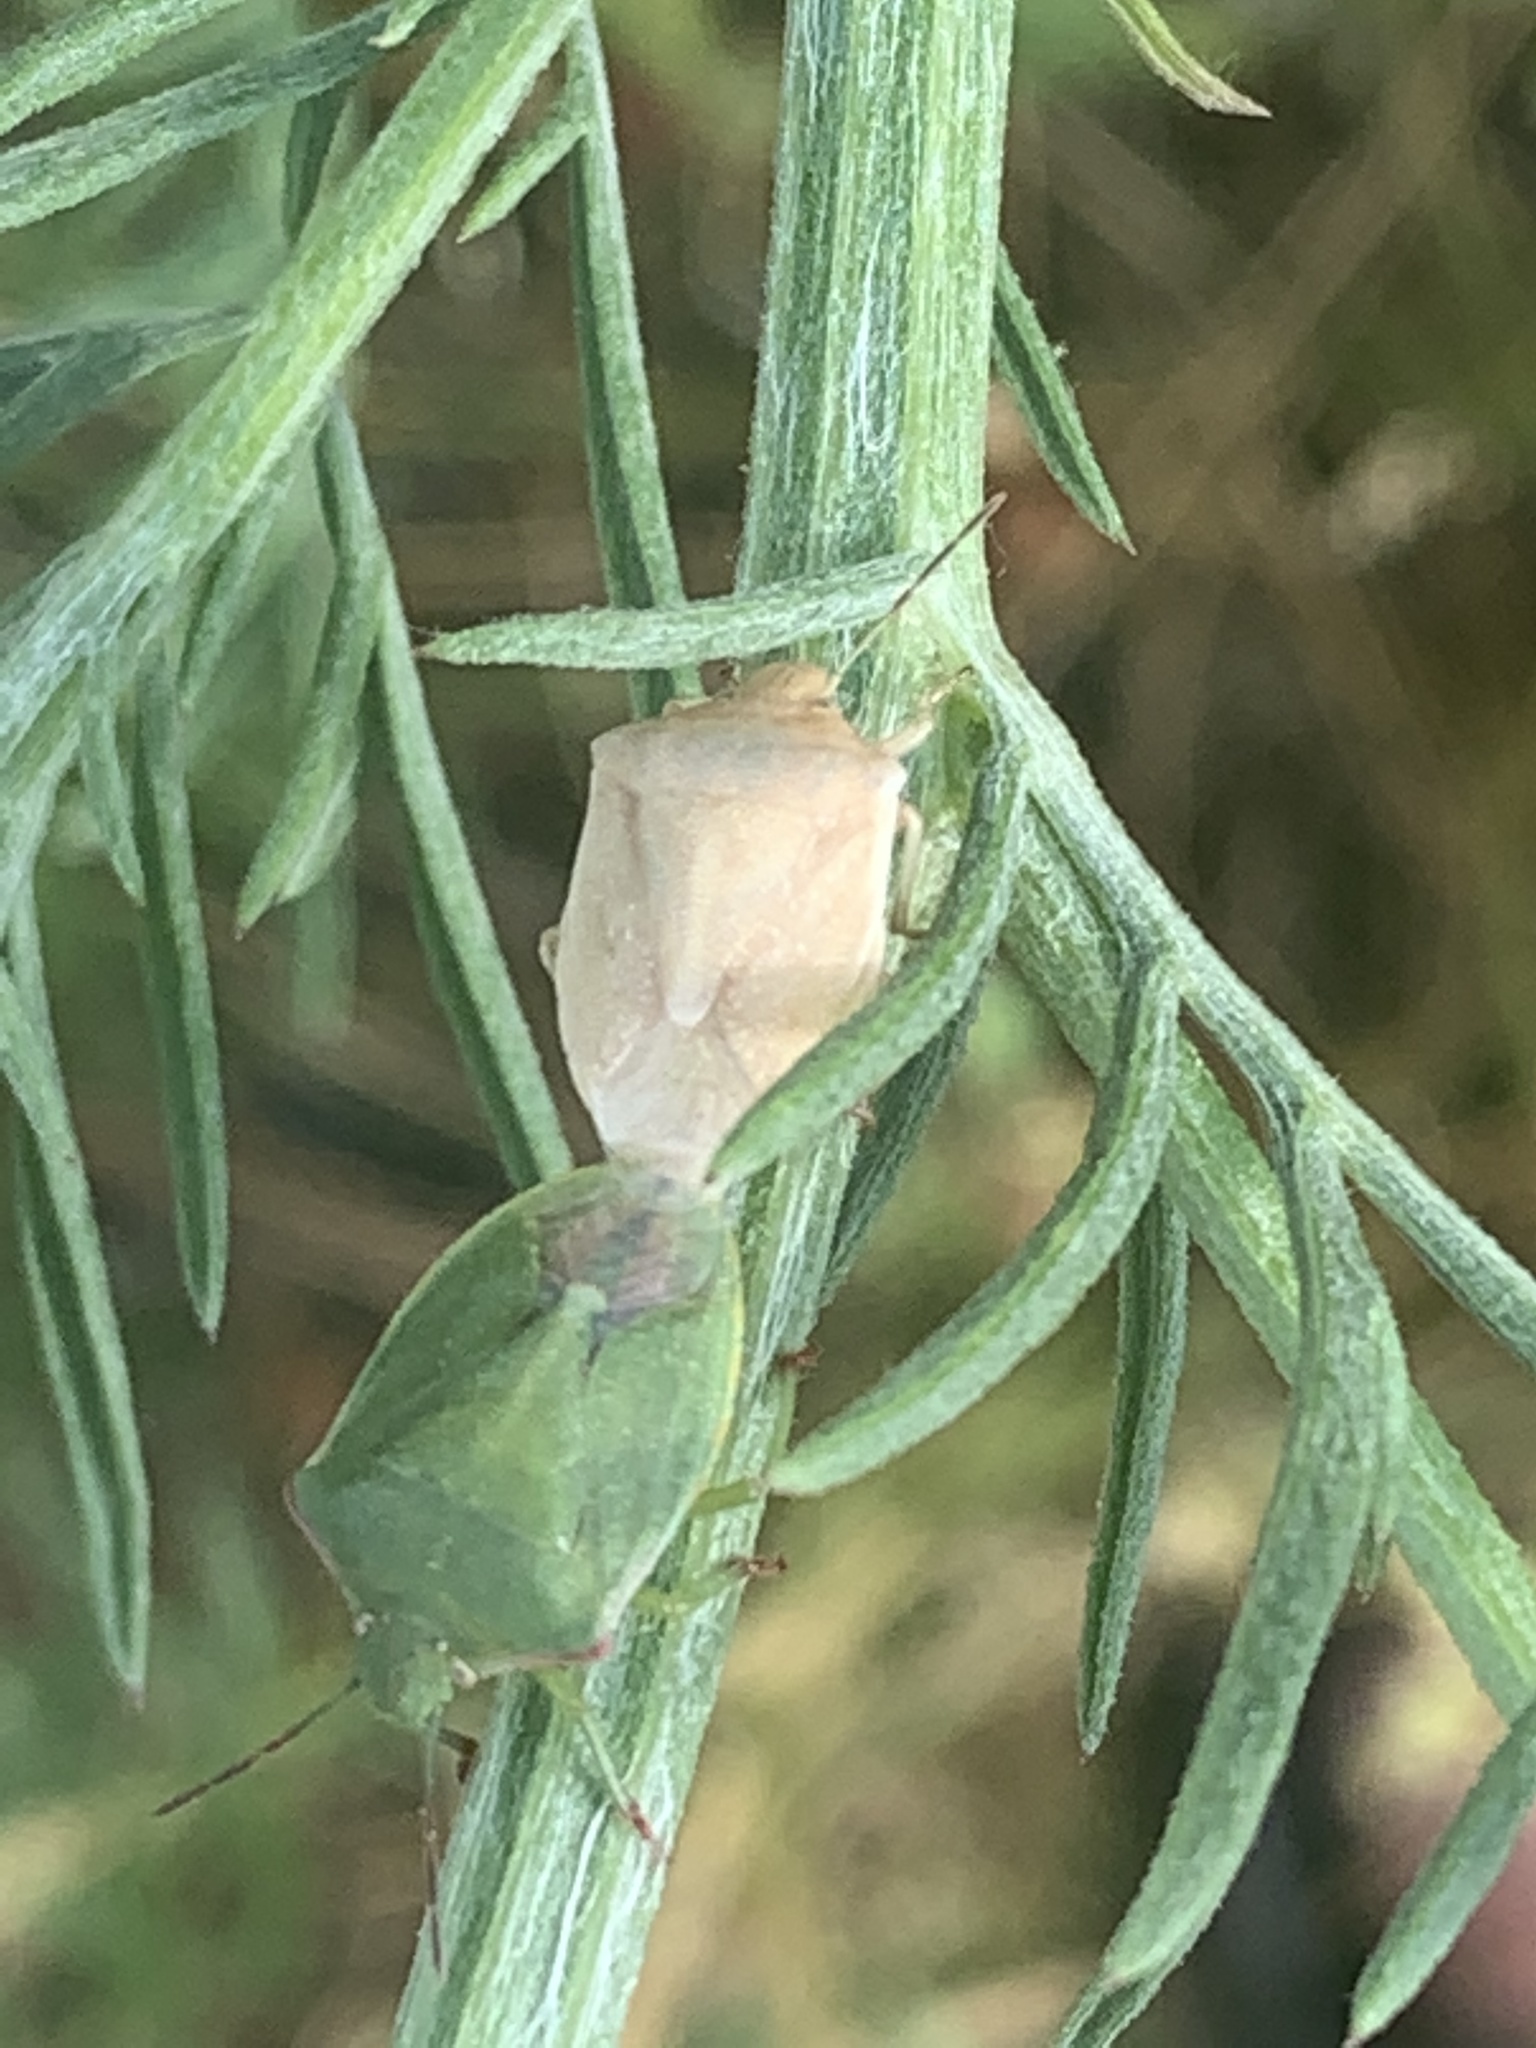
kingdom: Animalia
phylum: Arthropoda
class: Insecta
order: Hemiptera
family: Pentatomidae
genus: Thyanta
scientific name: Thyanta custator
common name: Stink bug
